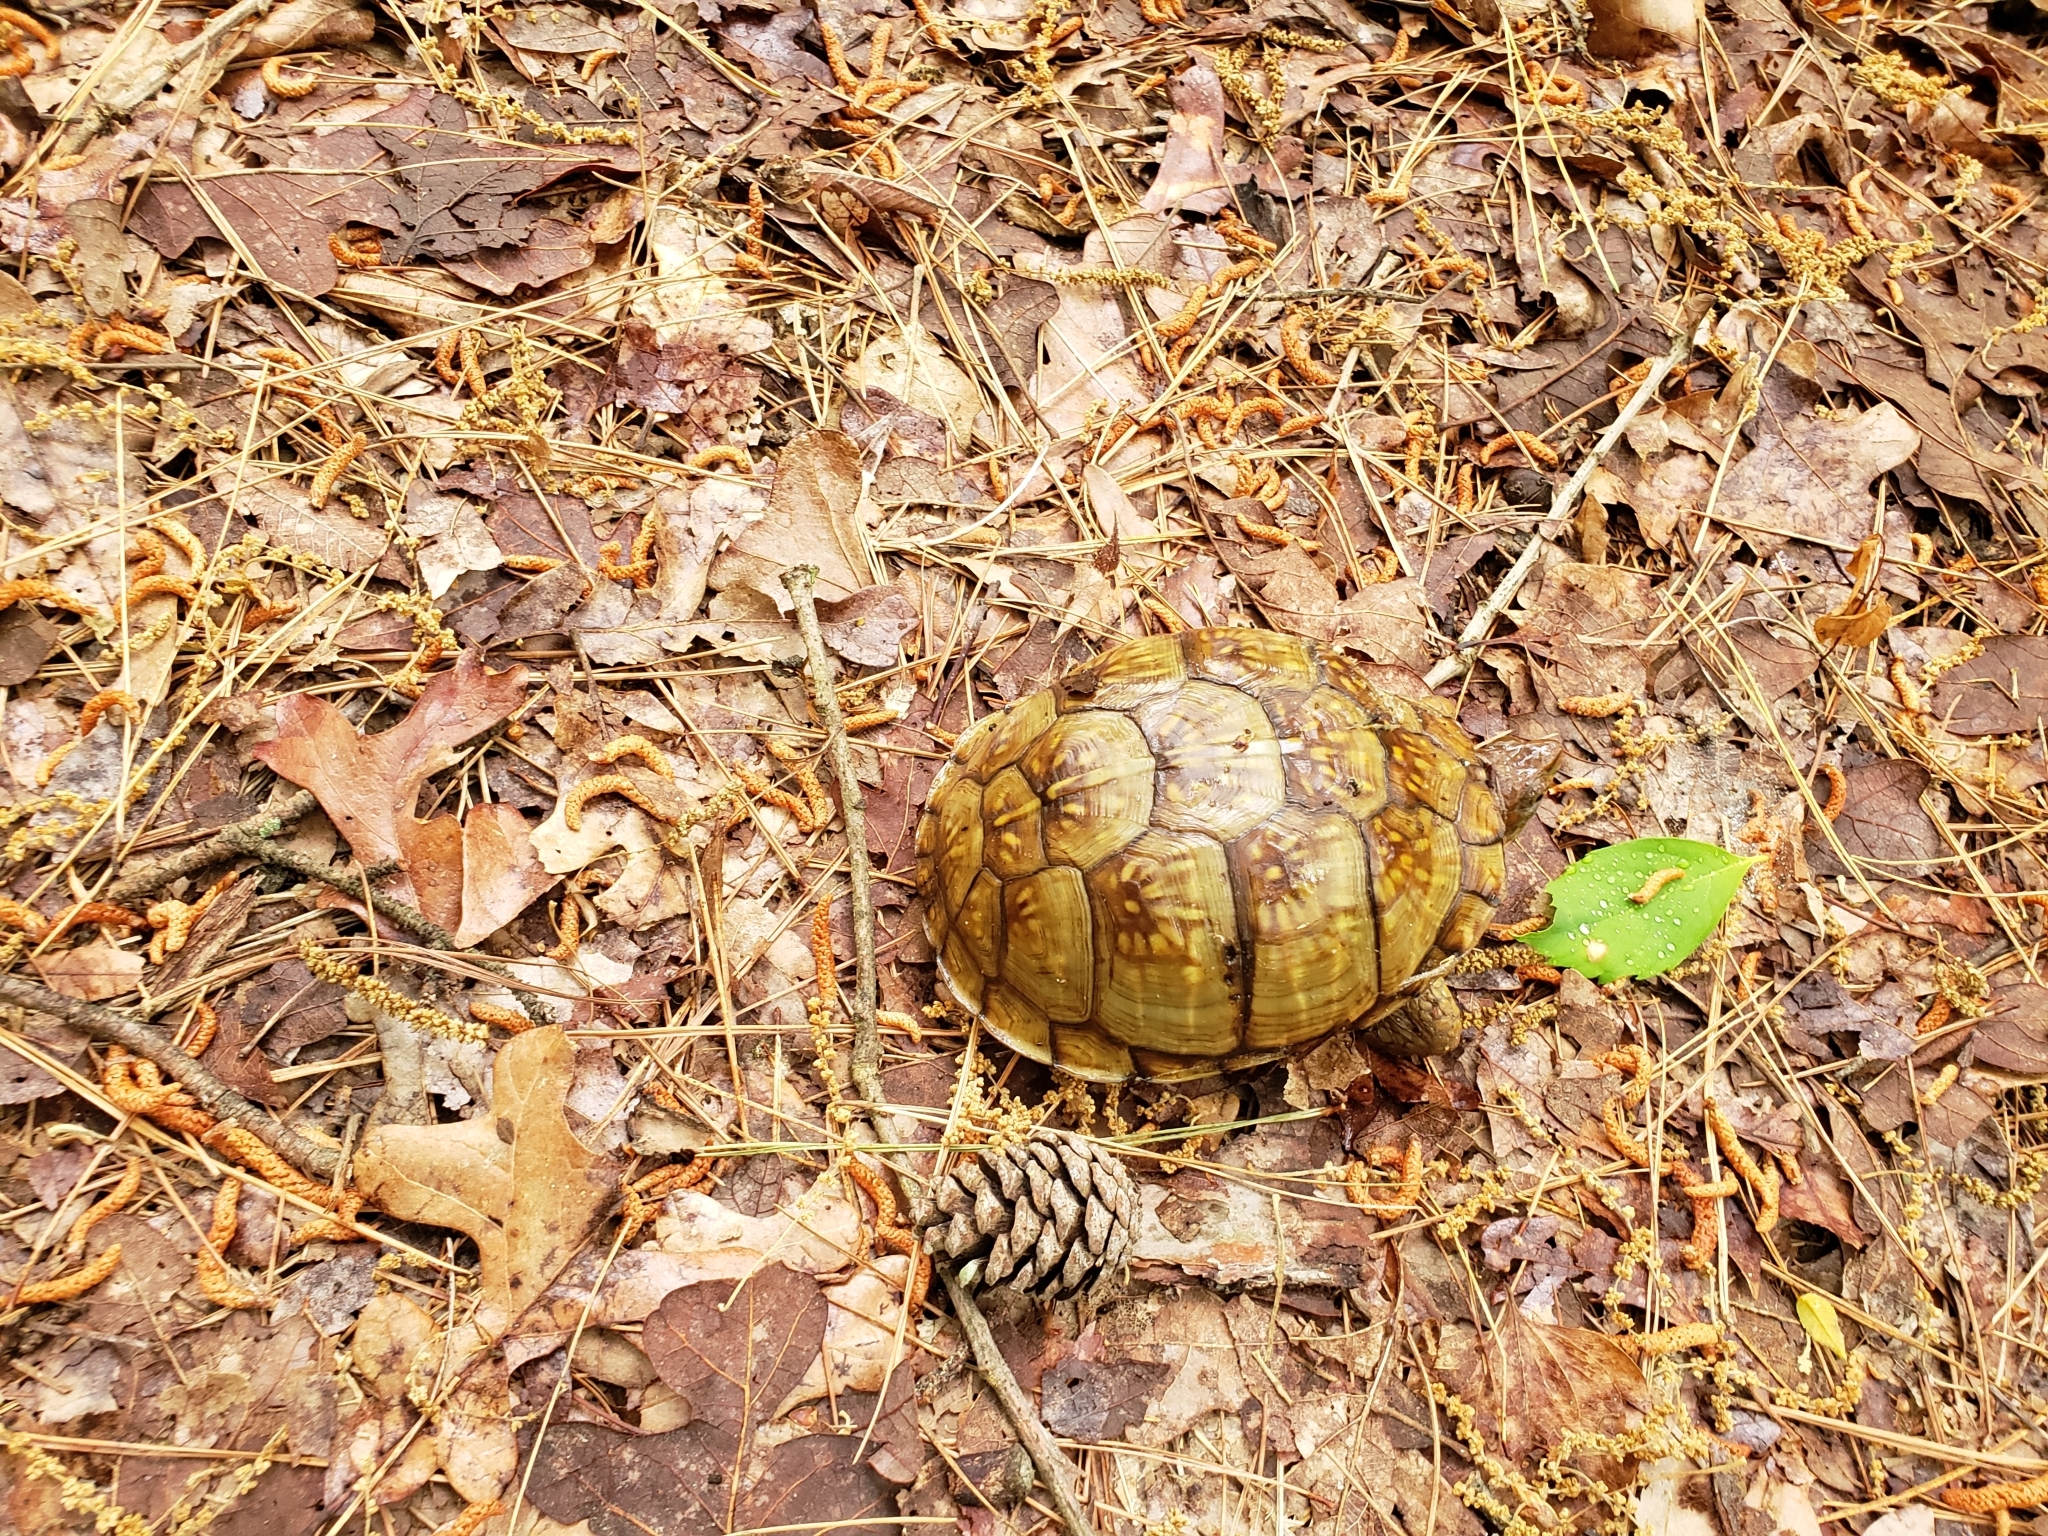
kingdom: Animalia
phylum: Chordata
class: Testudines
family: Emydidae
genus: Terrapene
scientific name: Terrapene carolina
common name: Common box turtle
